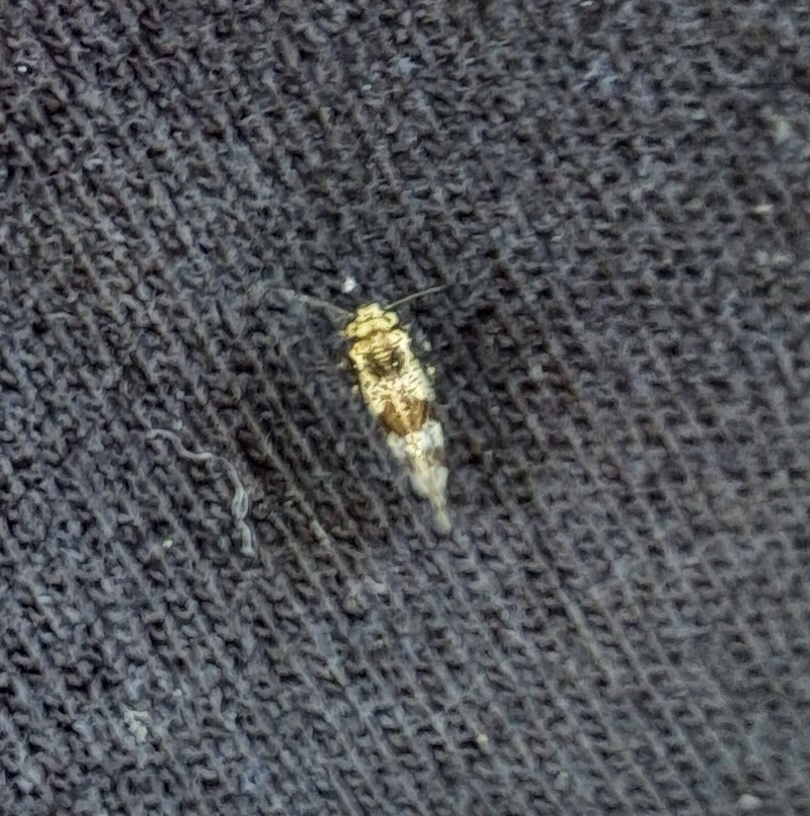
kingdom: Animalia
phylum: Arthropoda
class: Insecta
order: Psocodea
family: Psocidae
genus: Loensia
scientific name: Loensia fasciata
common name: Common bark louse
